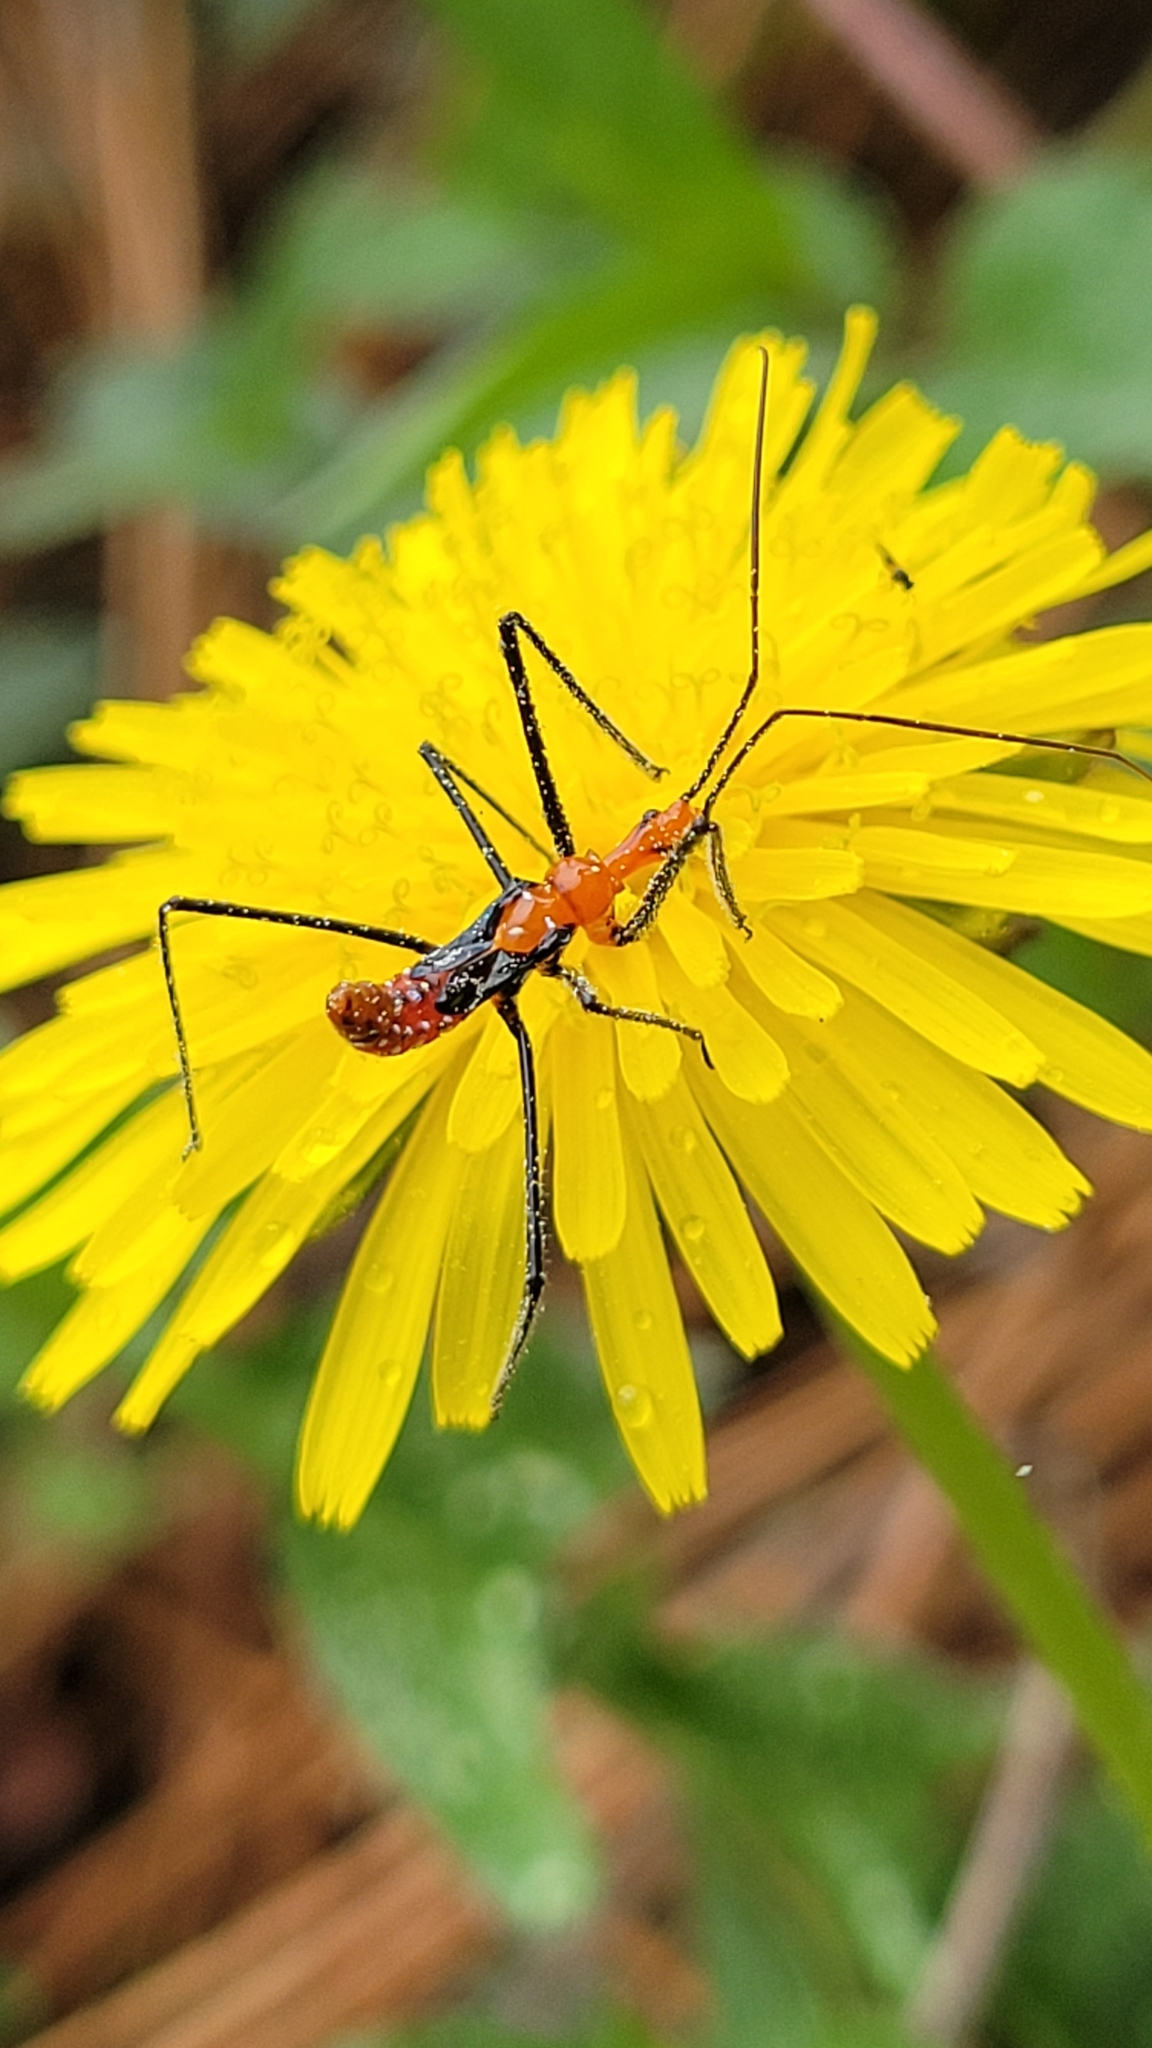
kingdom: Animalia
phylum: Arthropoda
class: Insecta
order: Hemiptera
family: Reduviidae
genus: Zelus
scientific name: Zelus longipes
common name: Milkweed assassin bug
